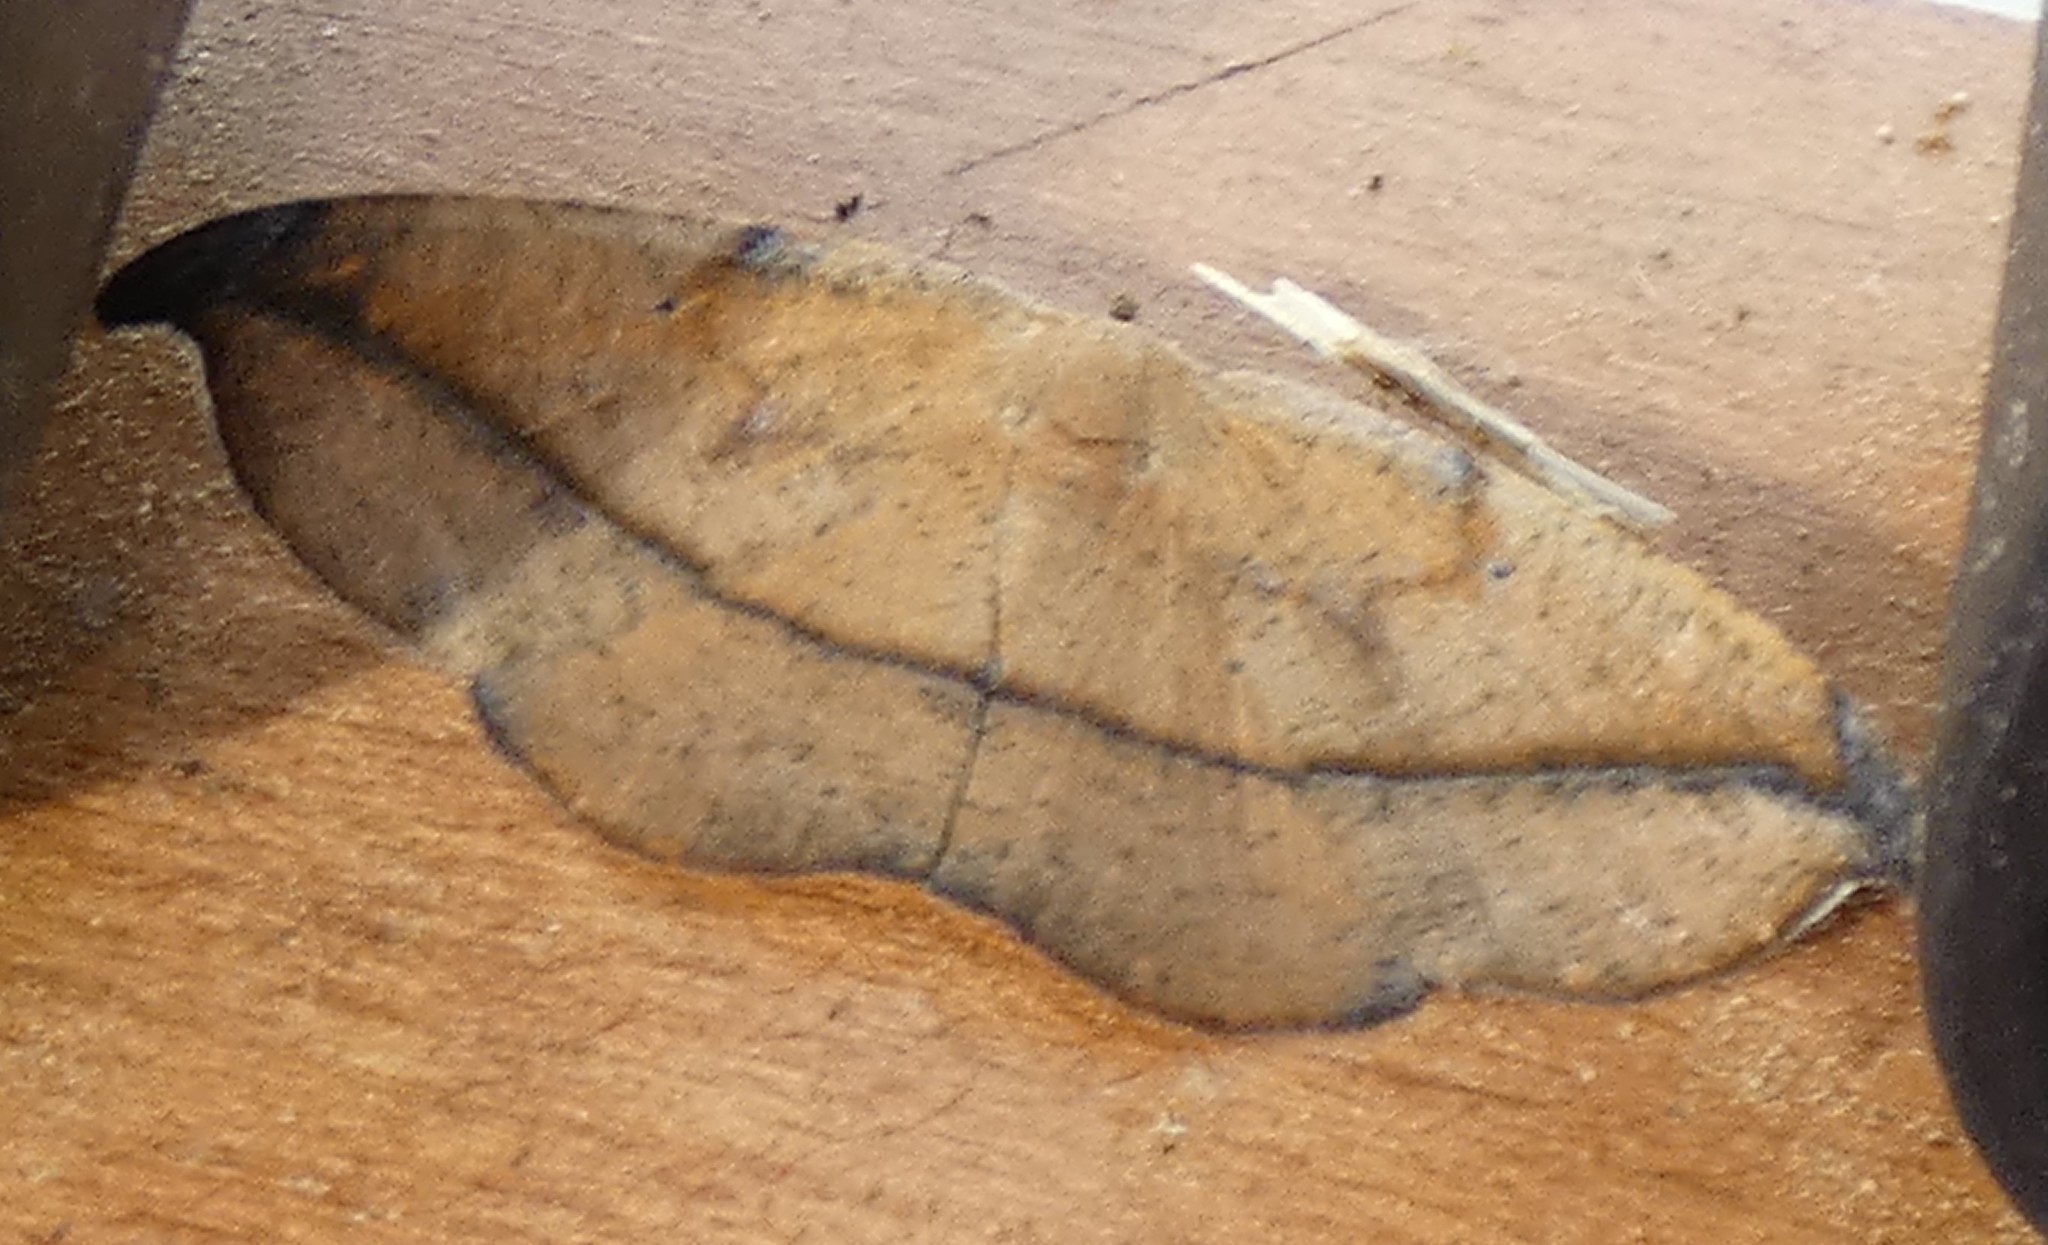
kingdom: Animalia
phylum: Arthropoda
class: Insecta
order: Lepidoptera
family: Geometridae
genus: Patalene
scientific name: Patalene olyzonaria
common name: Juniper geometer moth
